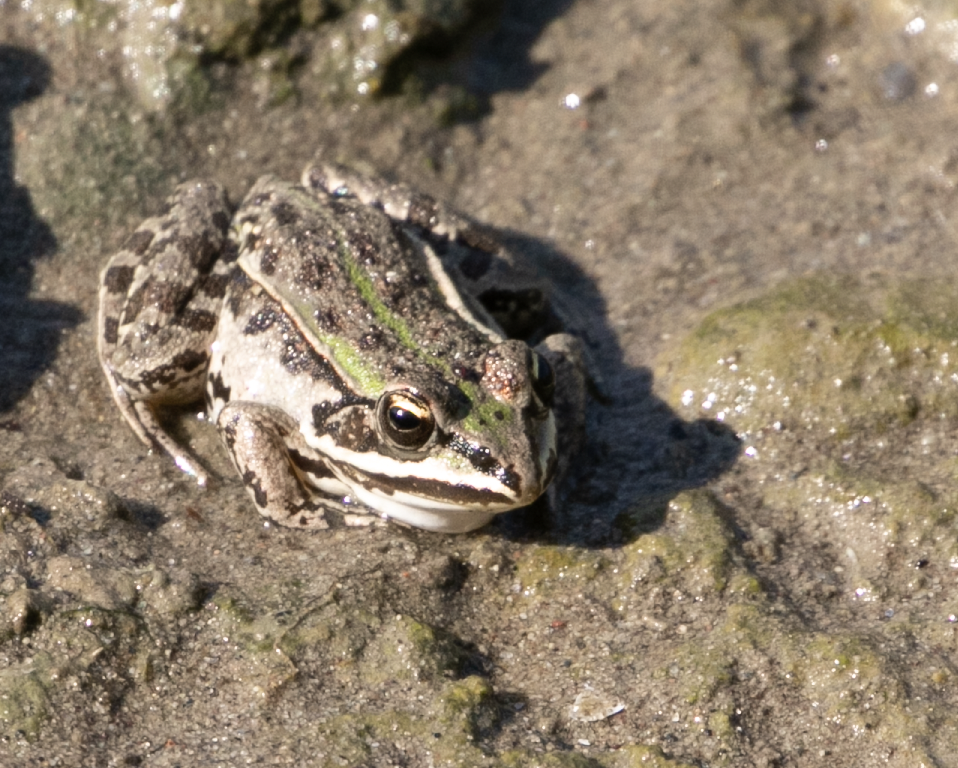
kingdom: Animalia
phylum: Chordata
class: Amphibia
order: Anura
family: Ranidae
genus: Pelophylax
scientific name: Pelophylax
